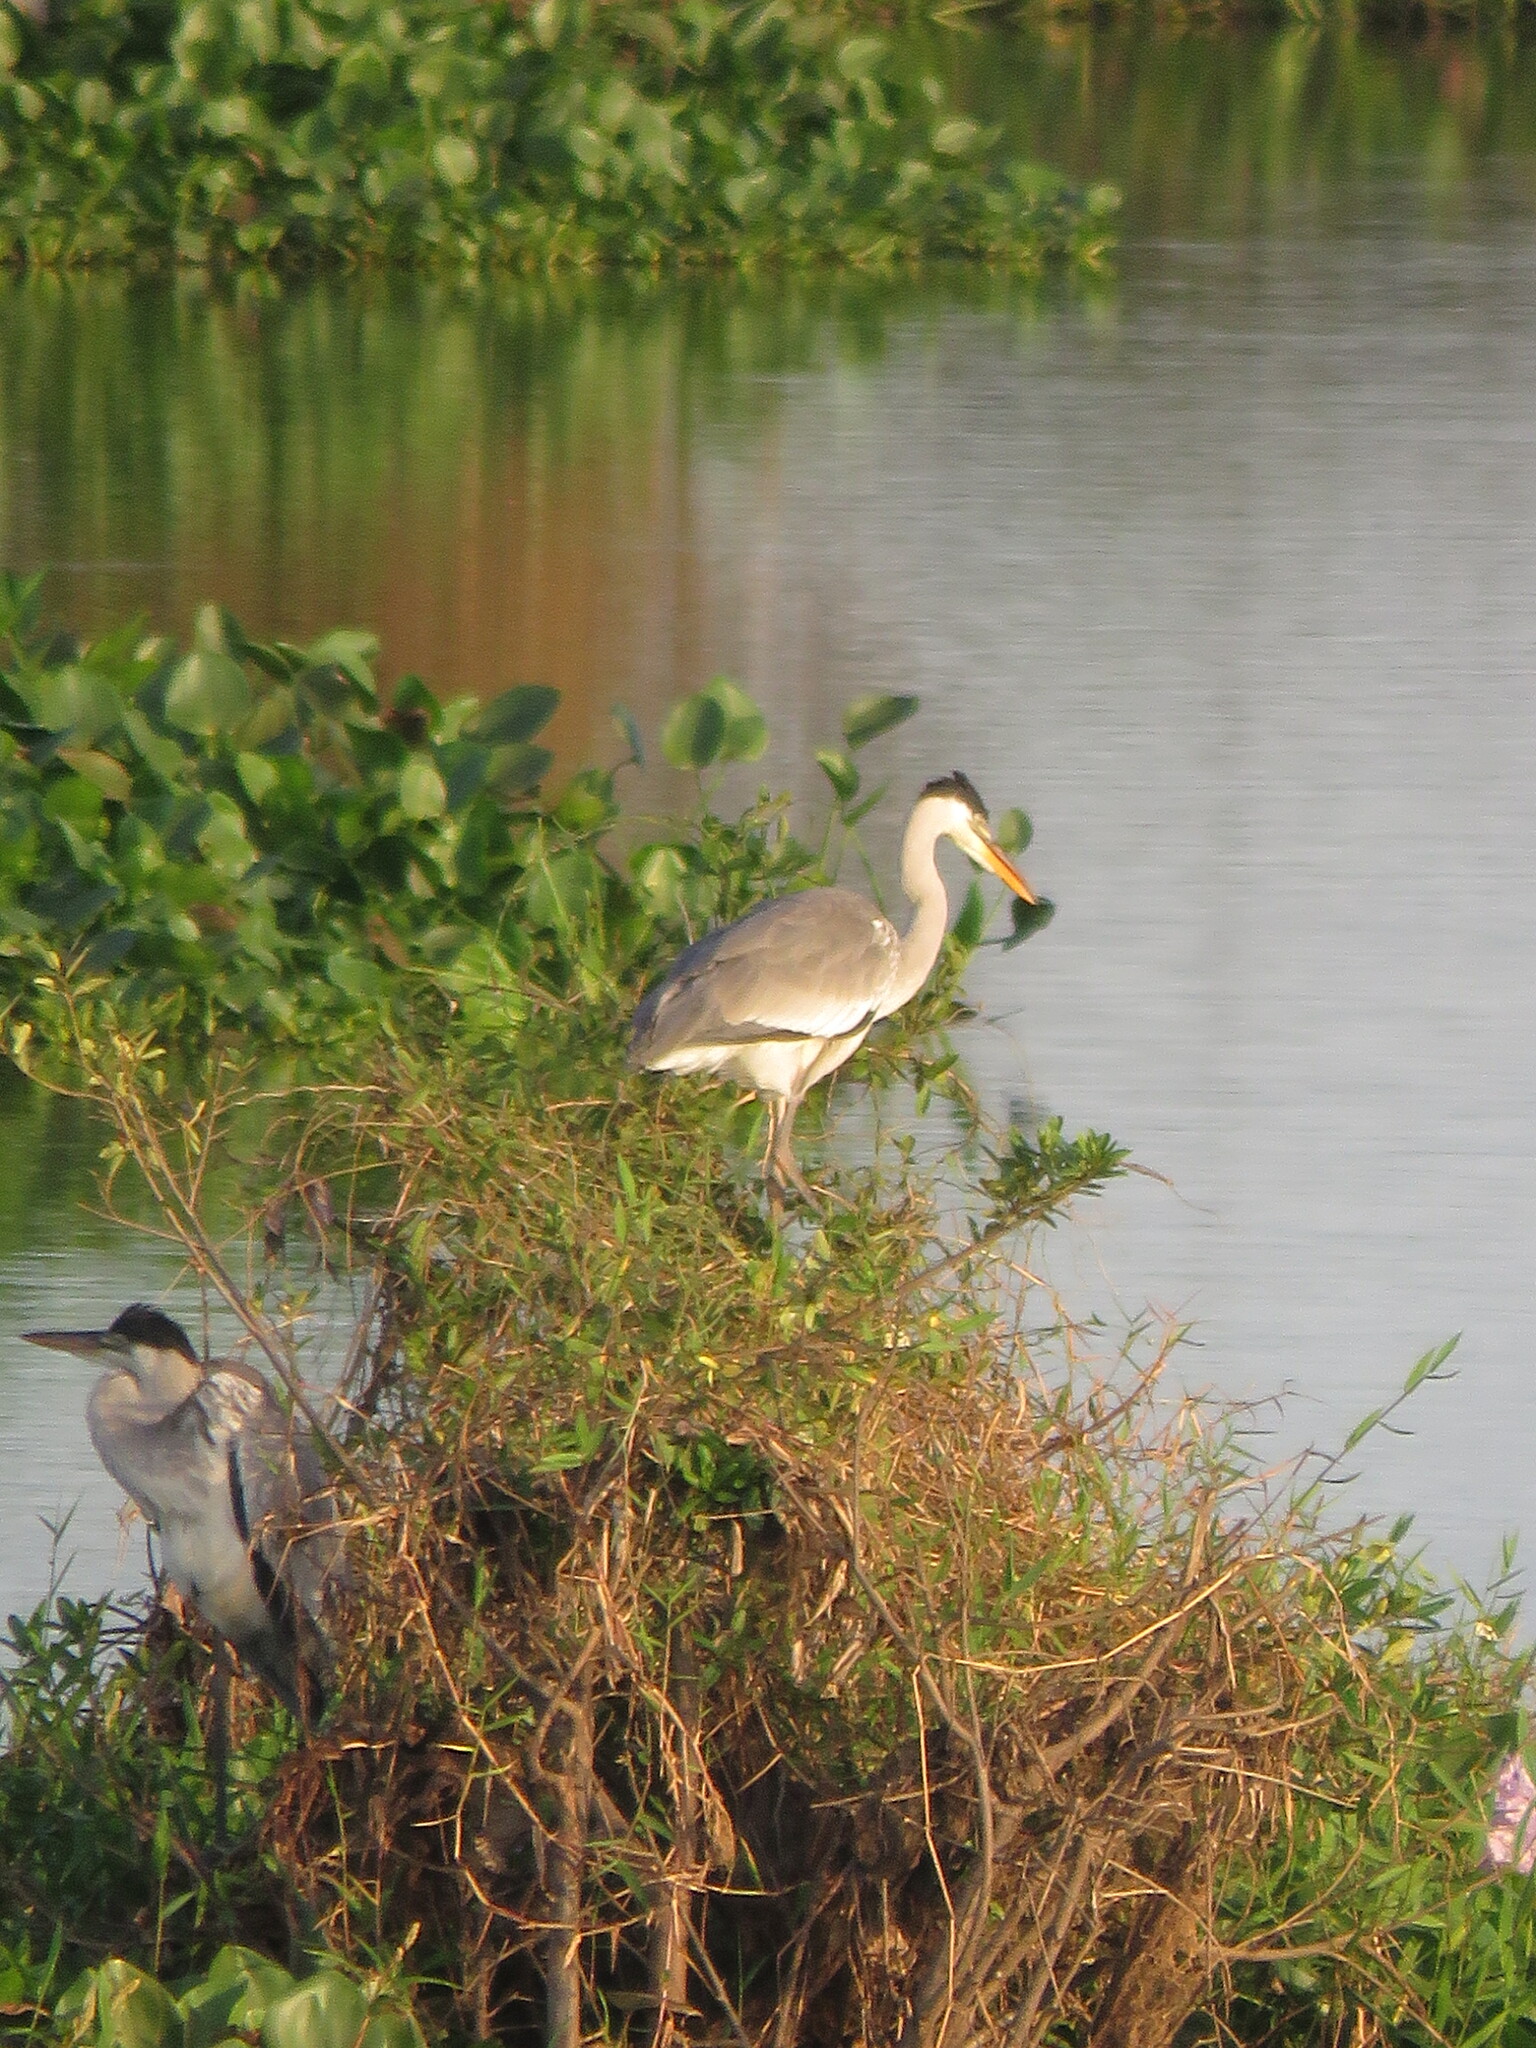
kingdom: Animalia
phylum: Chordata
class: Aves
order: Pelecaniformes
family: Ardeidae
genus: Ardea
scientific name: Ardea cocoi
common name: Cocoi heron
